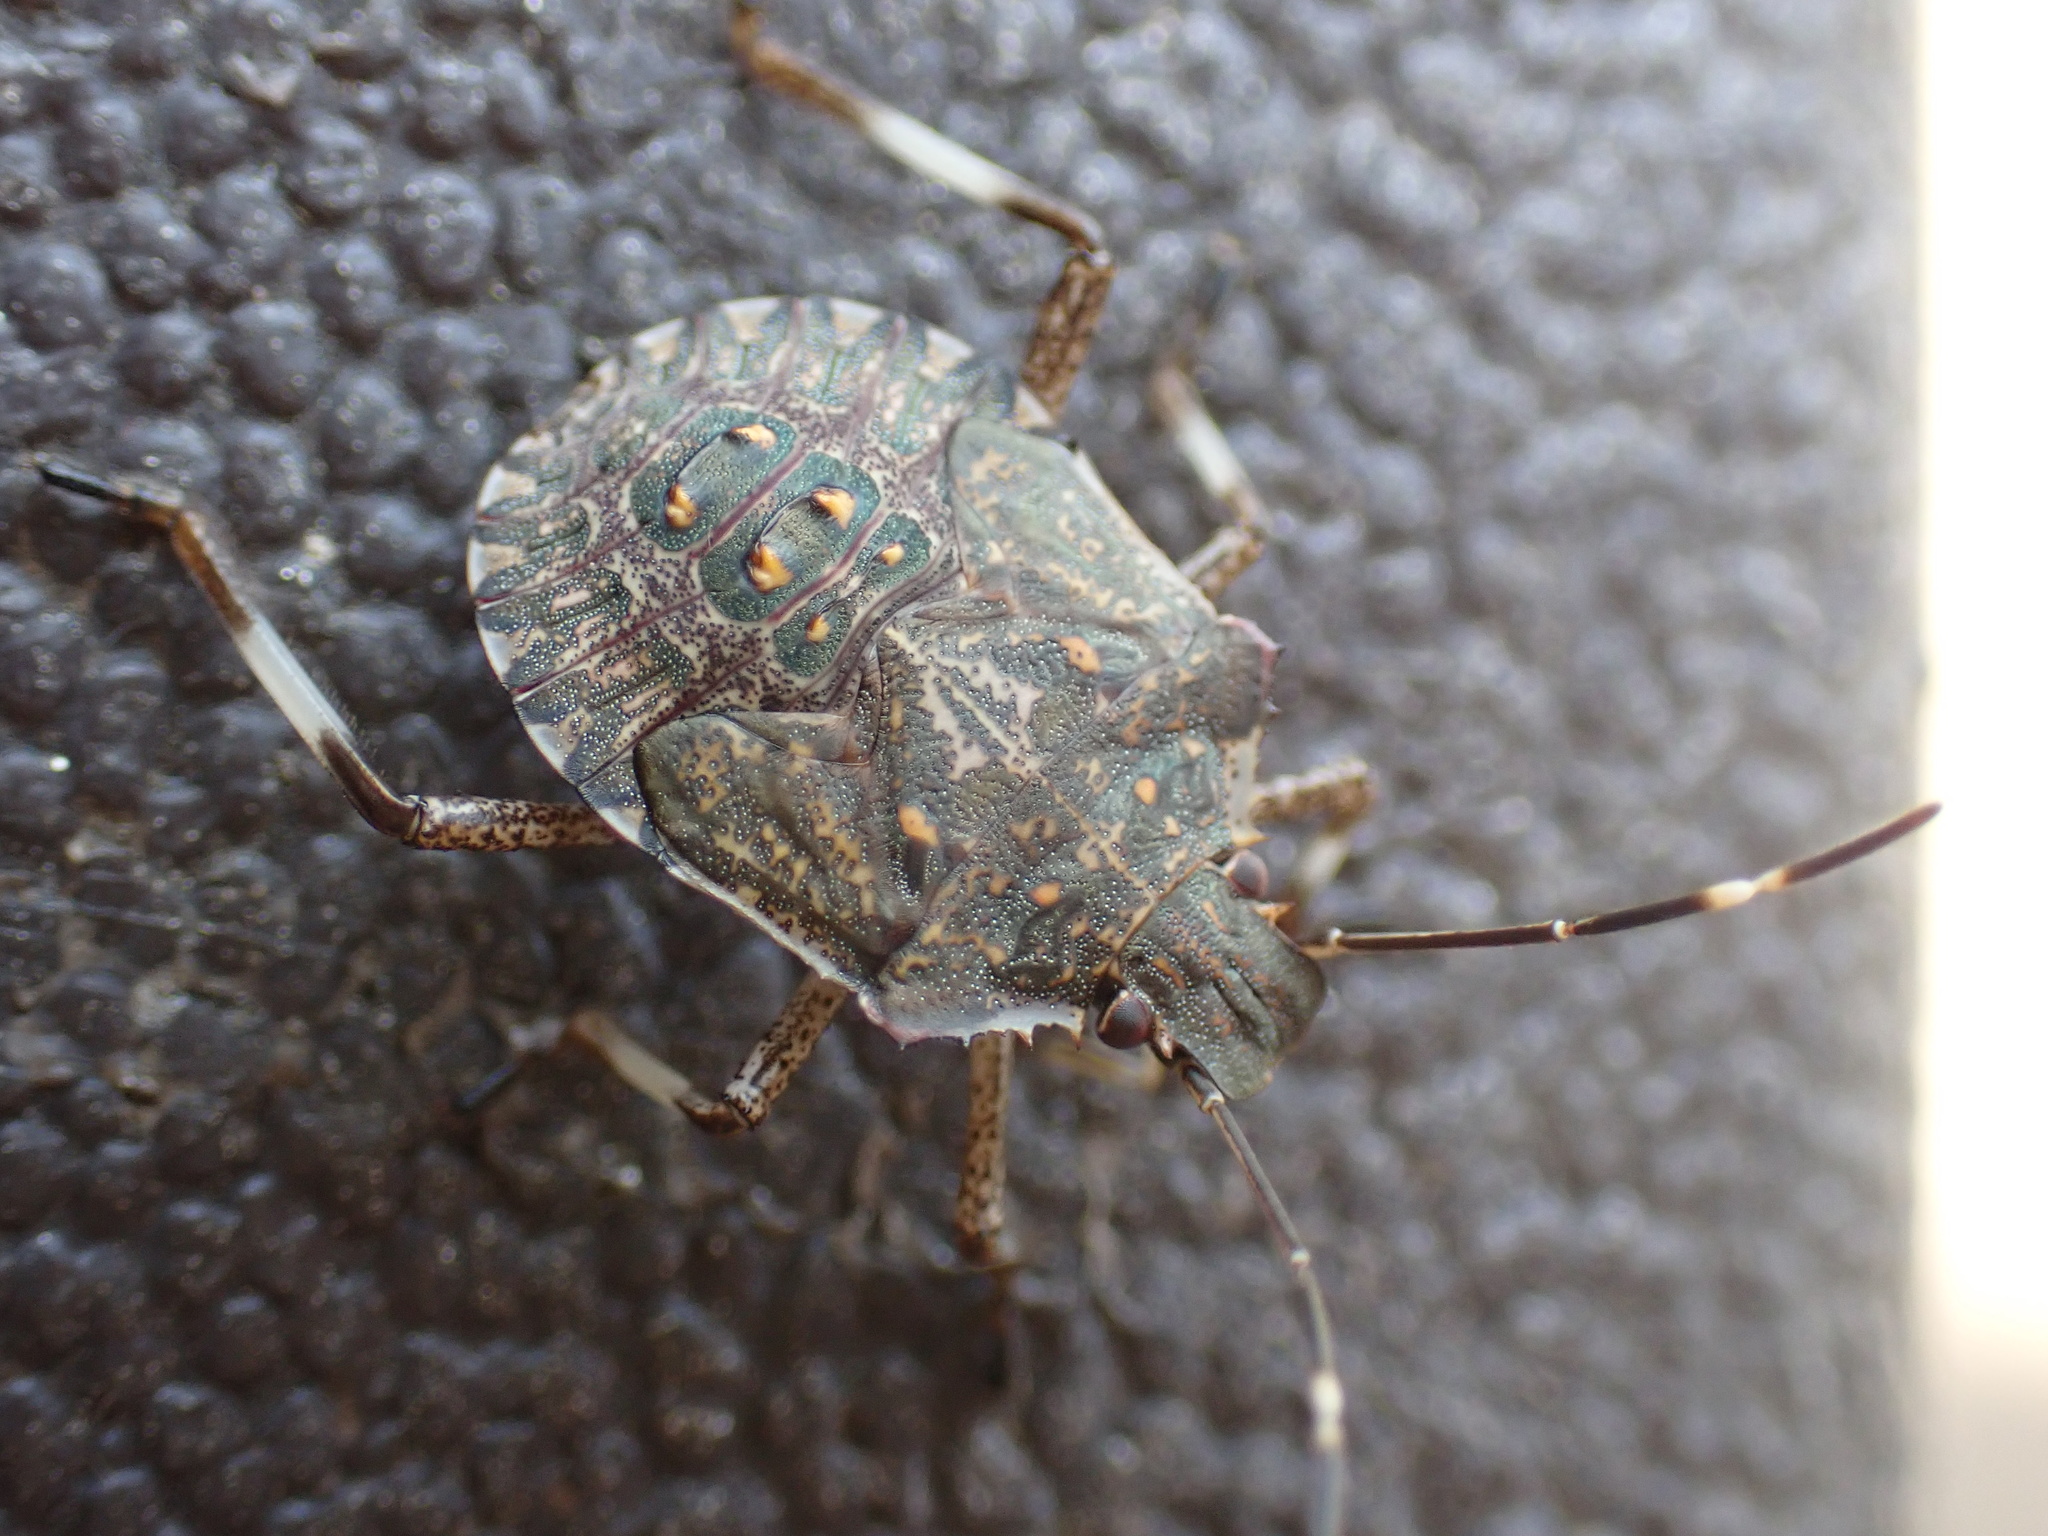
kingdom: Animalia
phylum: Arthropoda
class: Insecta
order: Hemiptera
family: Pentatomidae
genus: Halyomorpha
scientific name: Halyomorpha halys
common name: Brown marmorated stink bug
